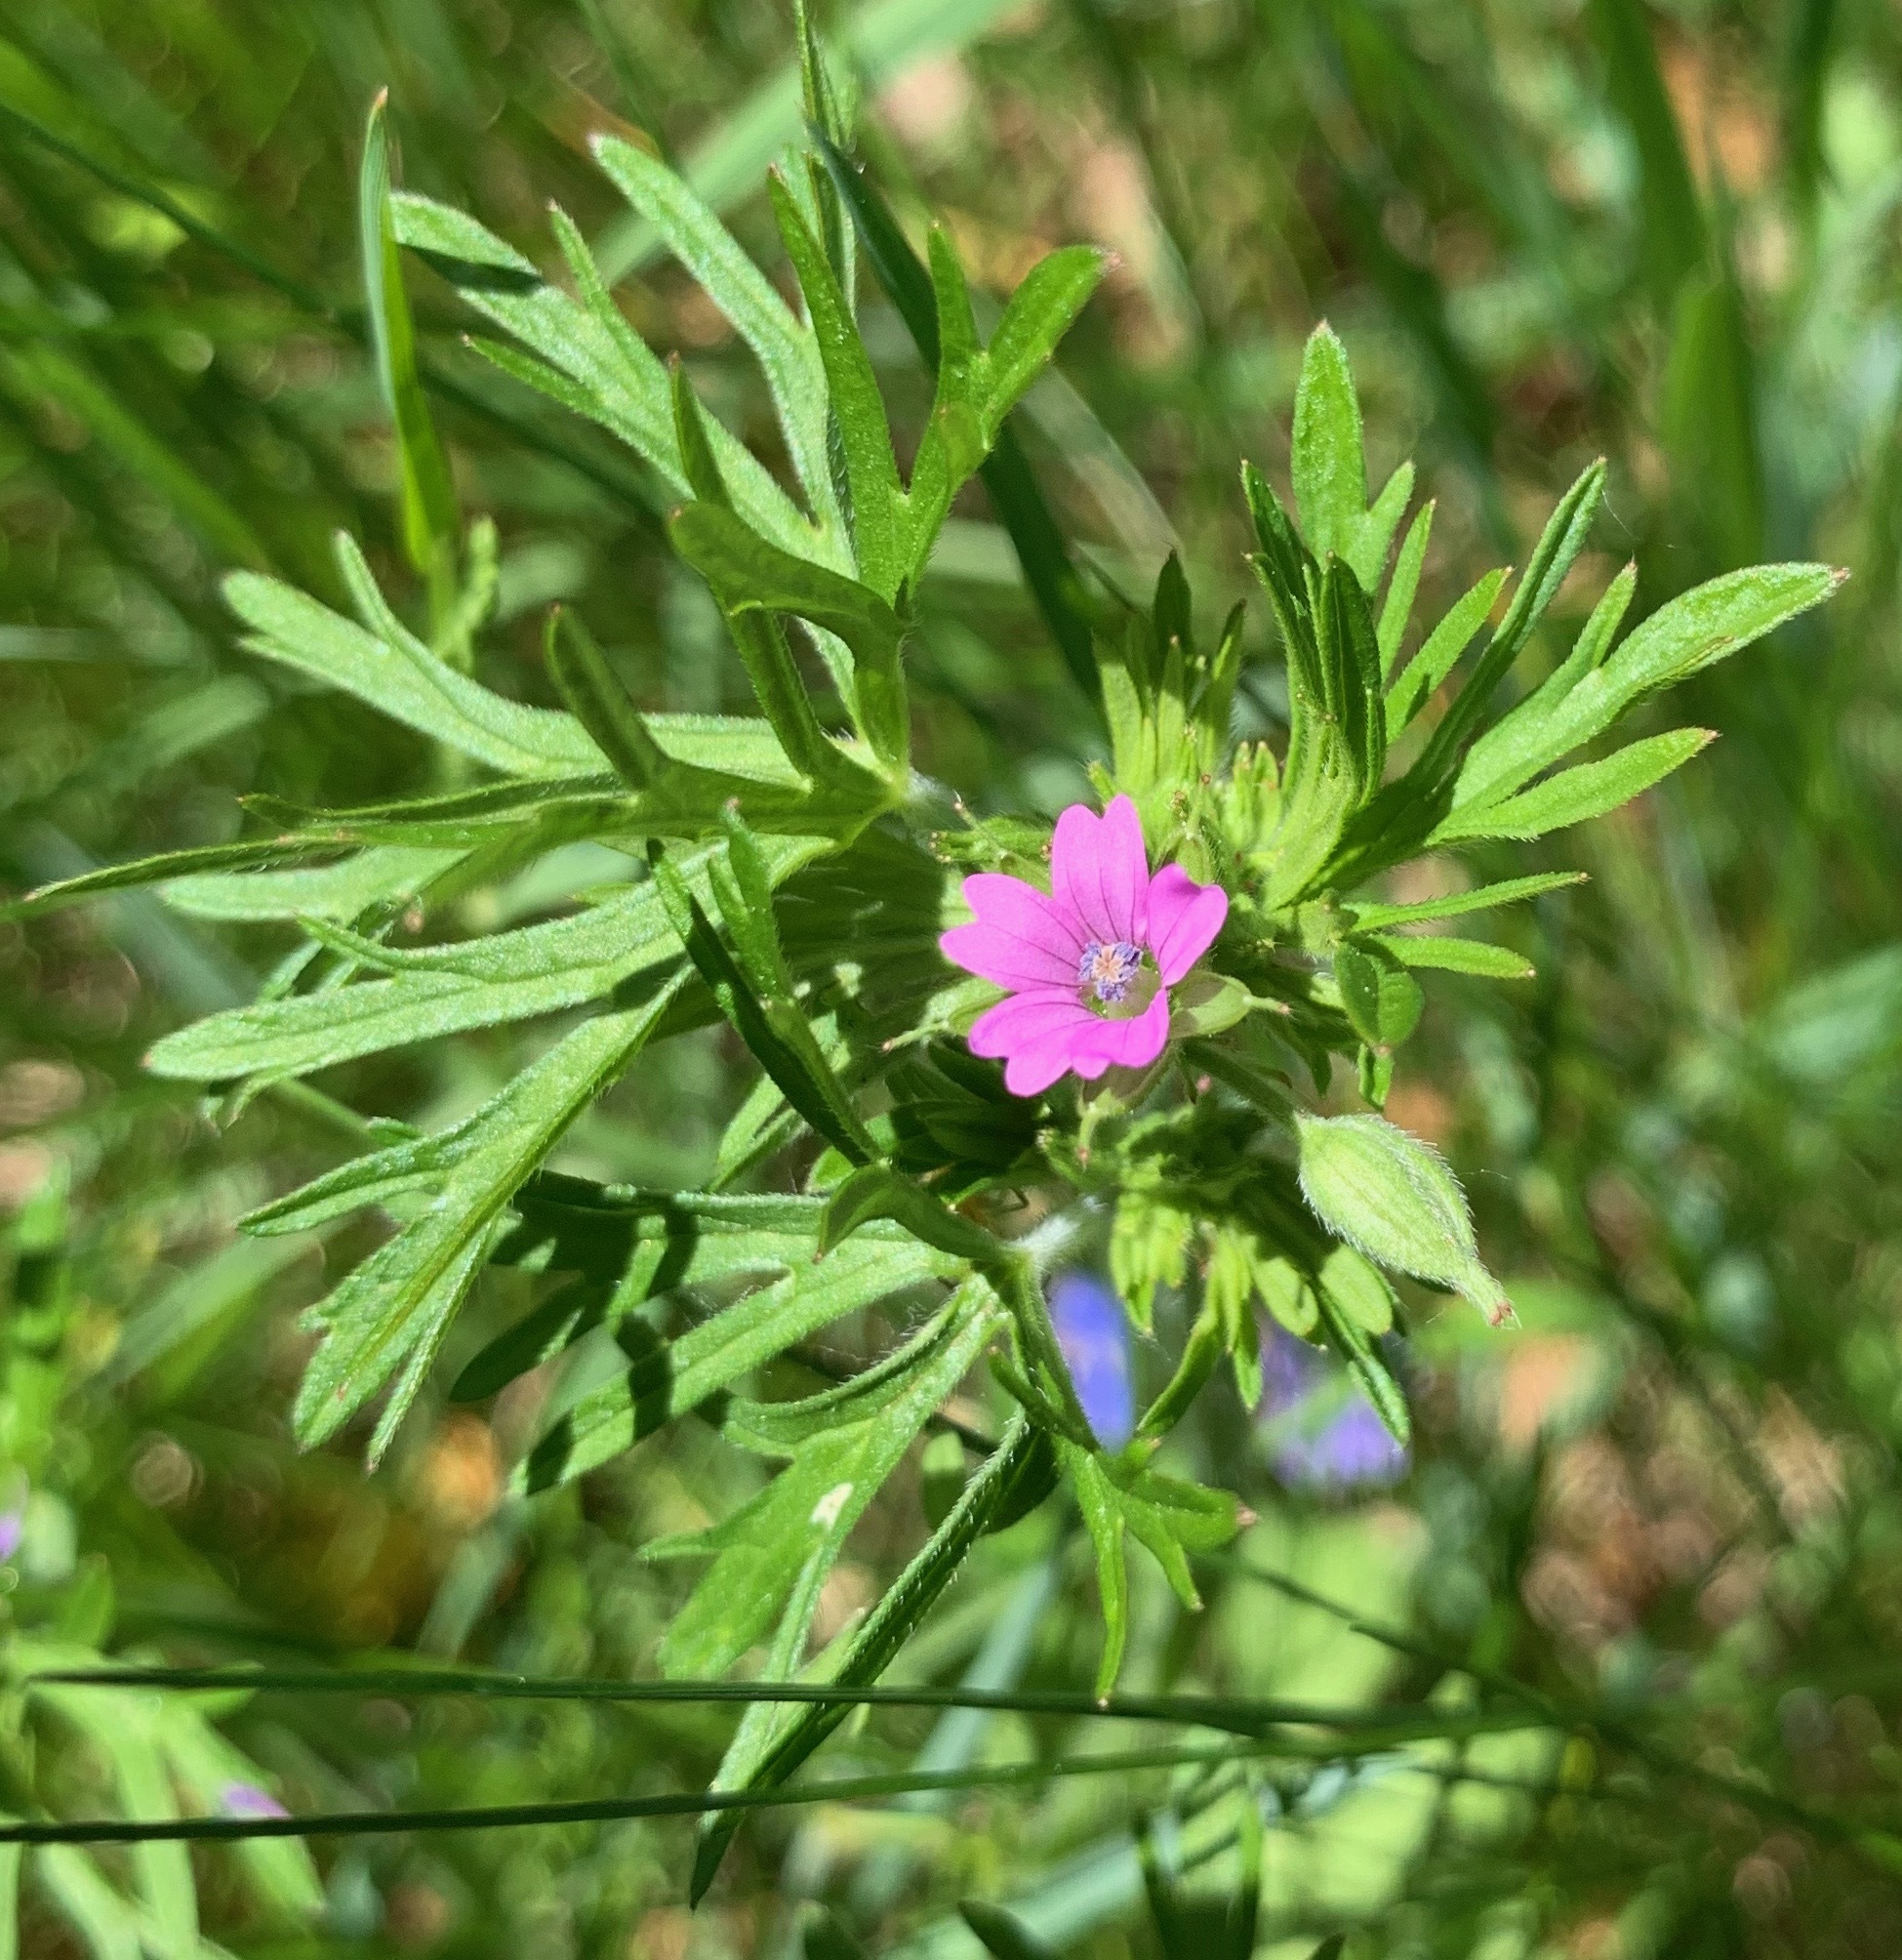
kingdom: Plantae
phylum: Tracheophyta
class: Magnoliopsida
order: Geraniales
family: Geraniaceae
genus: Geranium
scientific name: Geranium dissectum
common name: Cut-leaved crane's-bill
